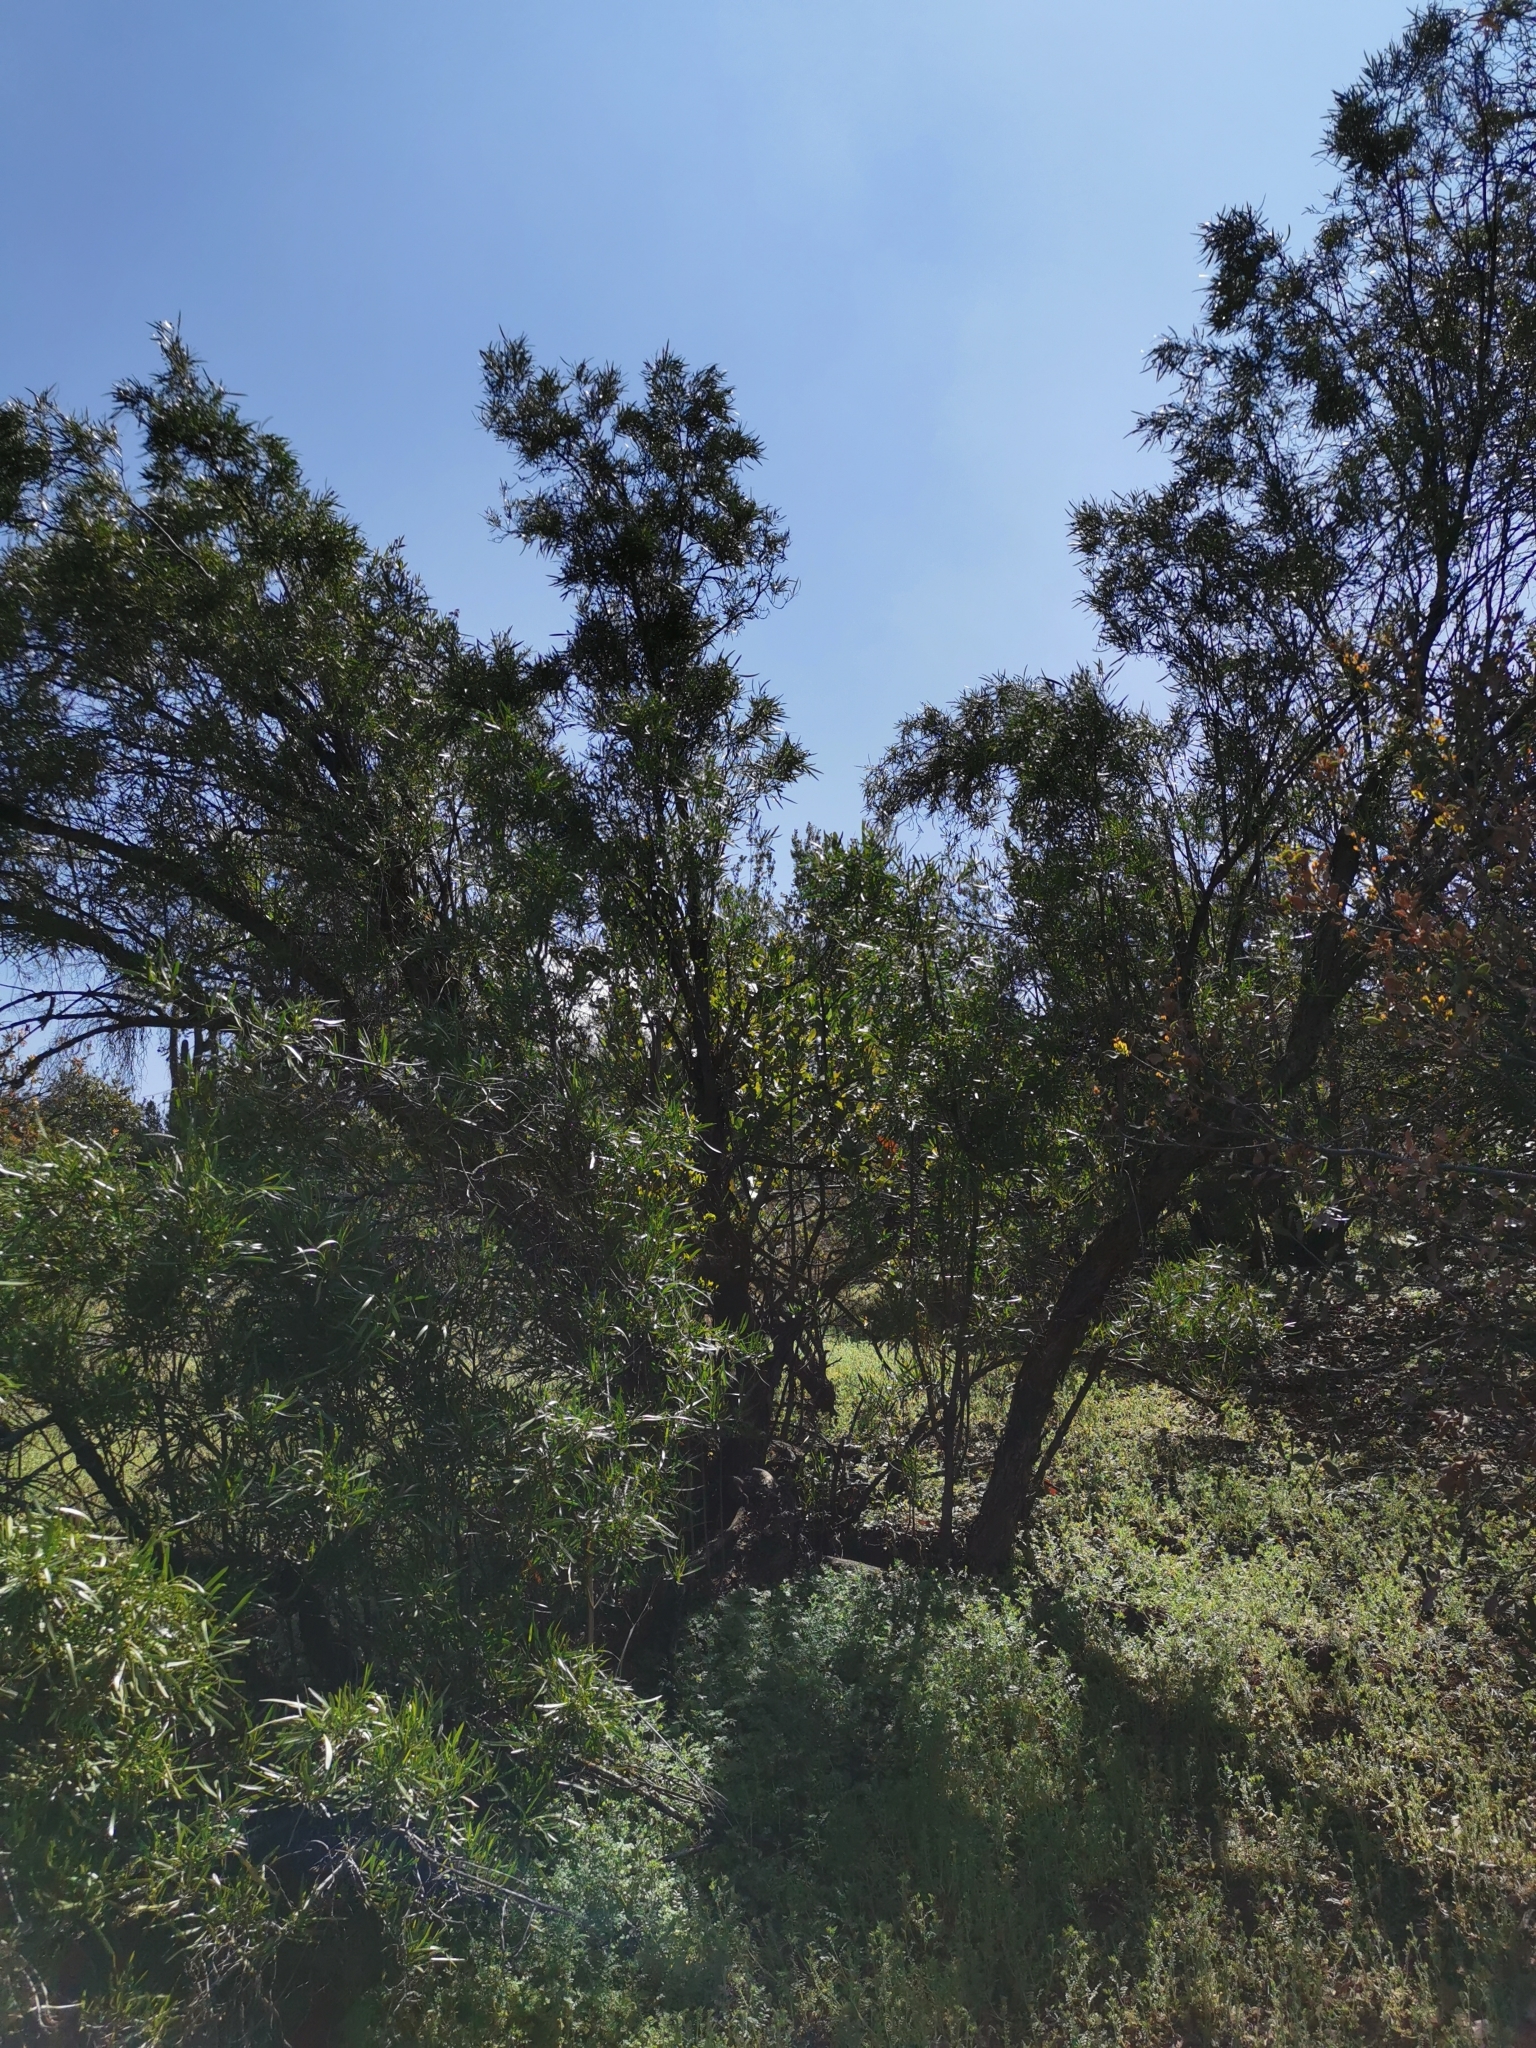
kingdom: Plantae
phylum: Tracheophyta
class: Magnoliopsida
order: Rosales
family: Rosaceae
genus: Kageneckia
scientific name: Kageneckia angustifolia
